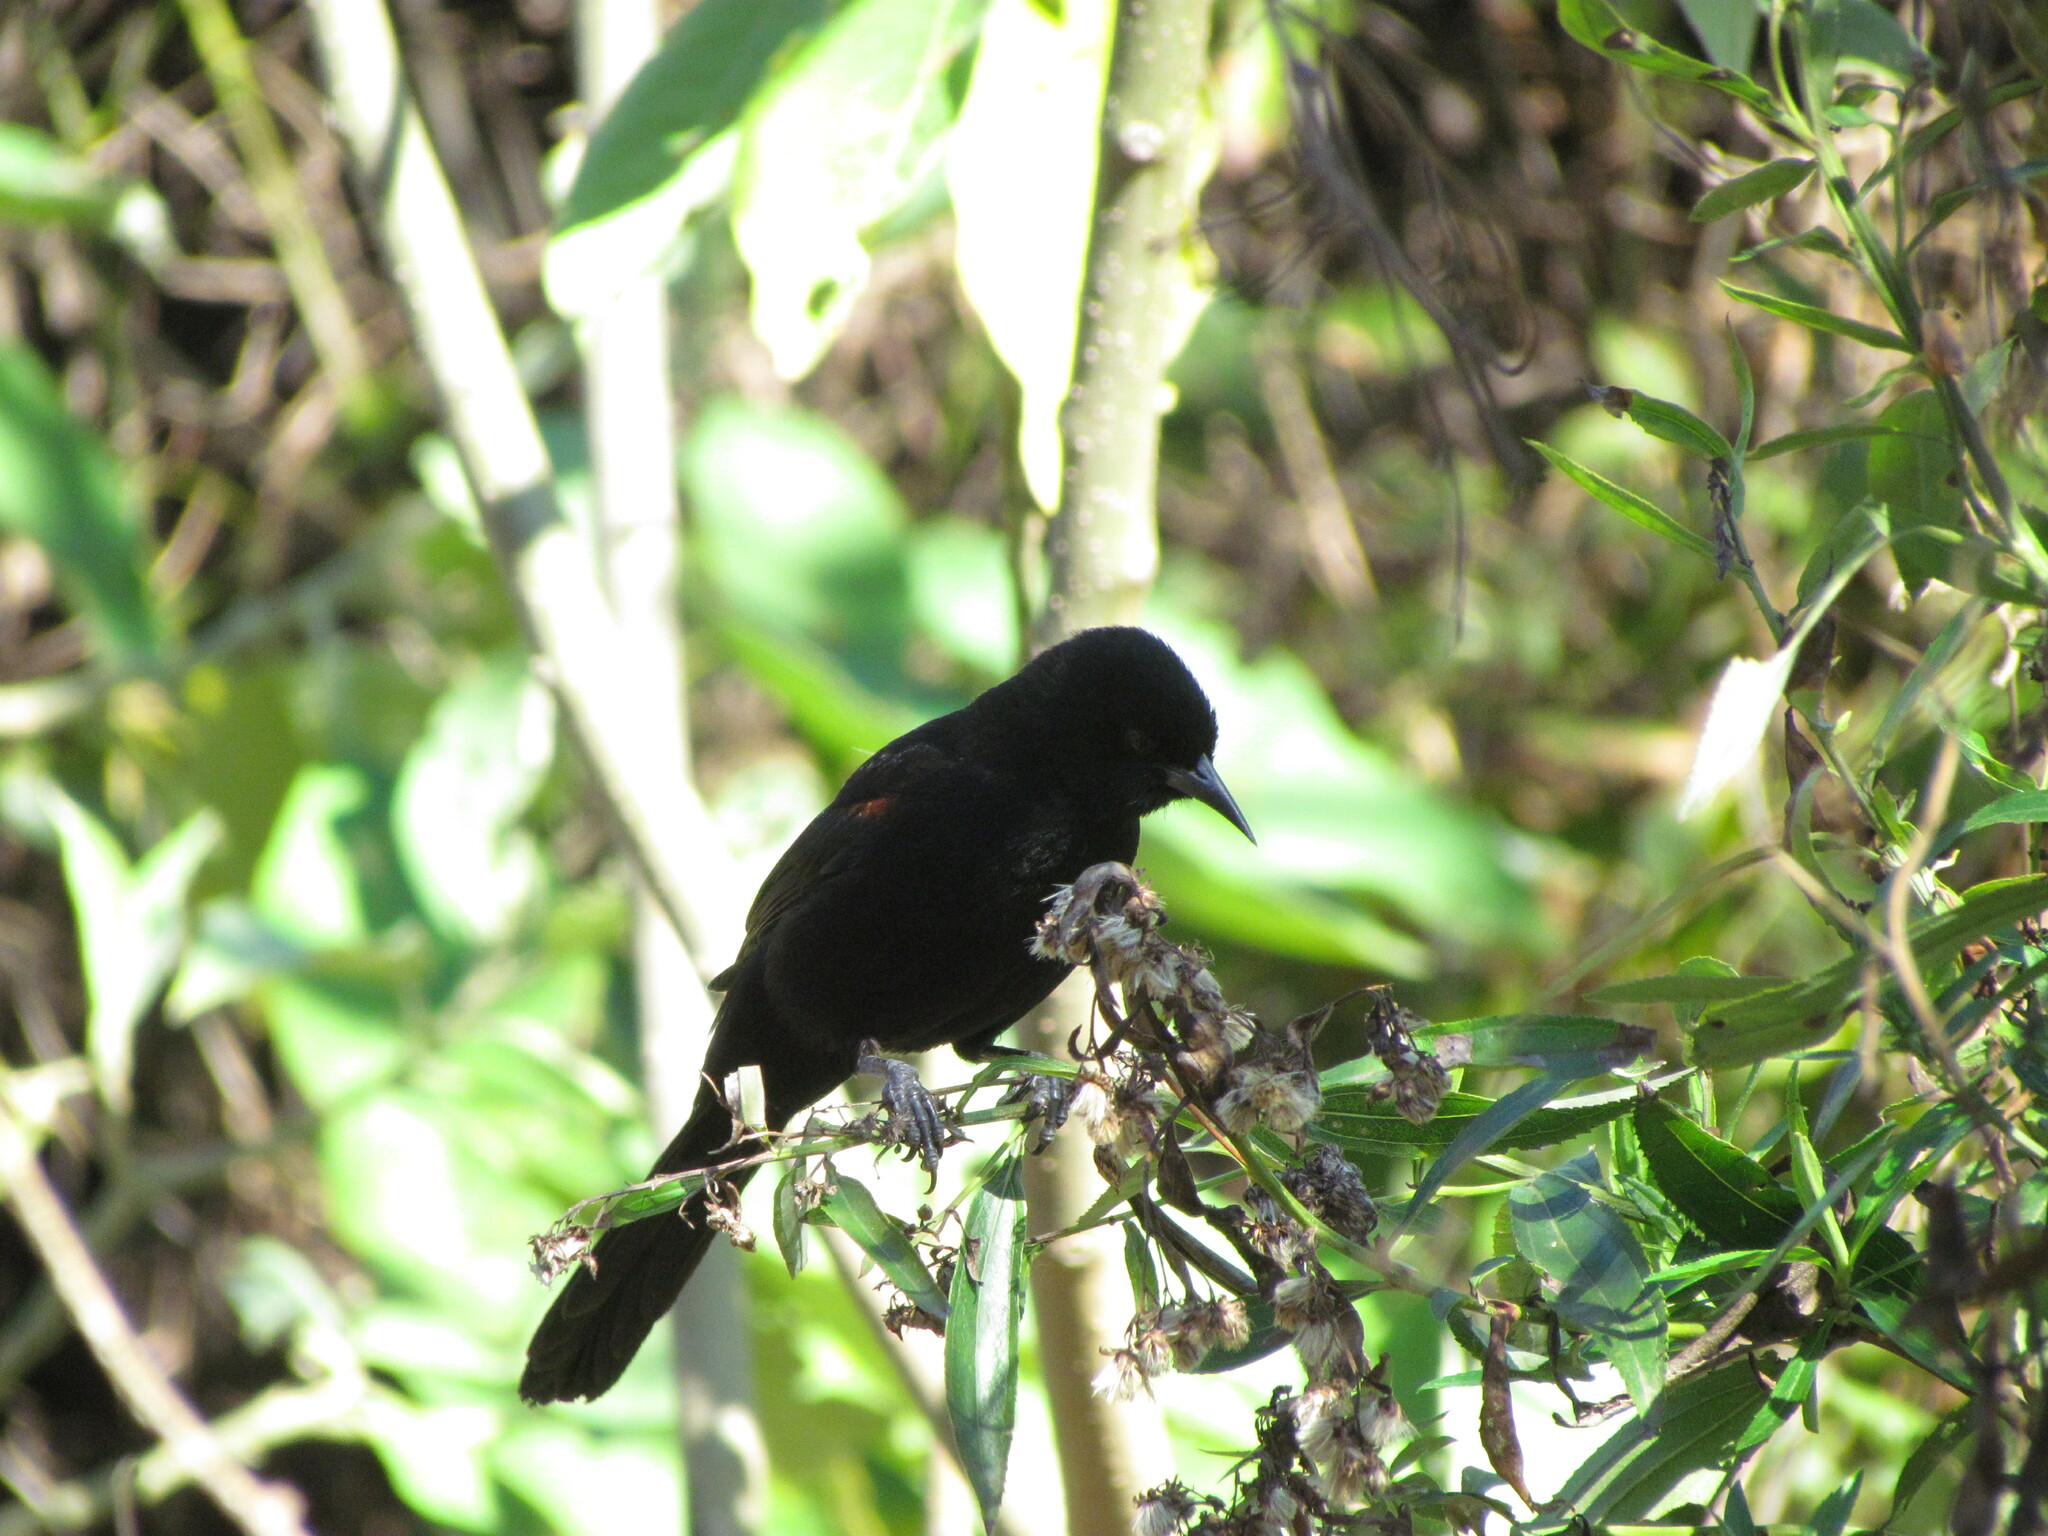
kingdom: Animalia
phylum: Chordata
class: Aves
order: Passeriformes
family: Icteridae
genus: Icterus
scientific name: Icterus cayanensis
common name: Epaulet oriole
